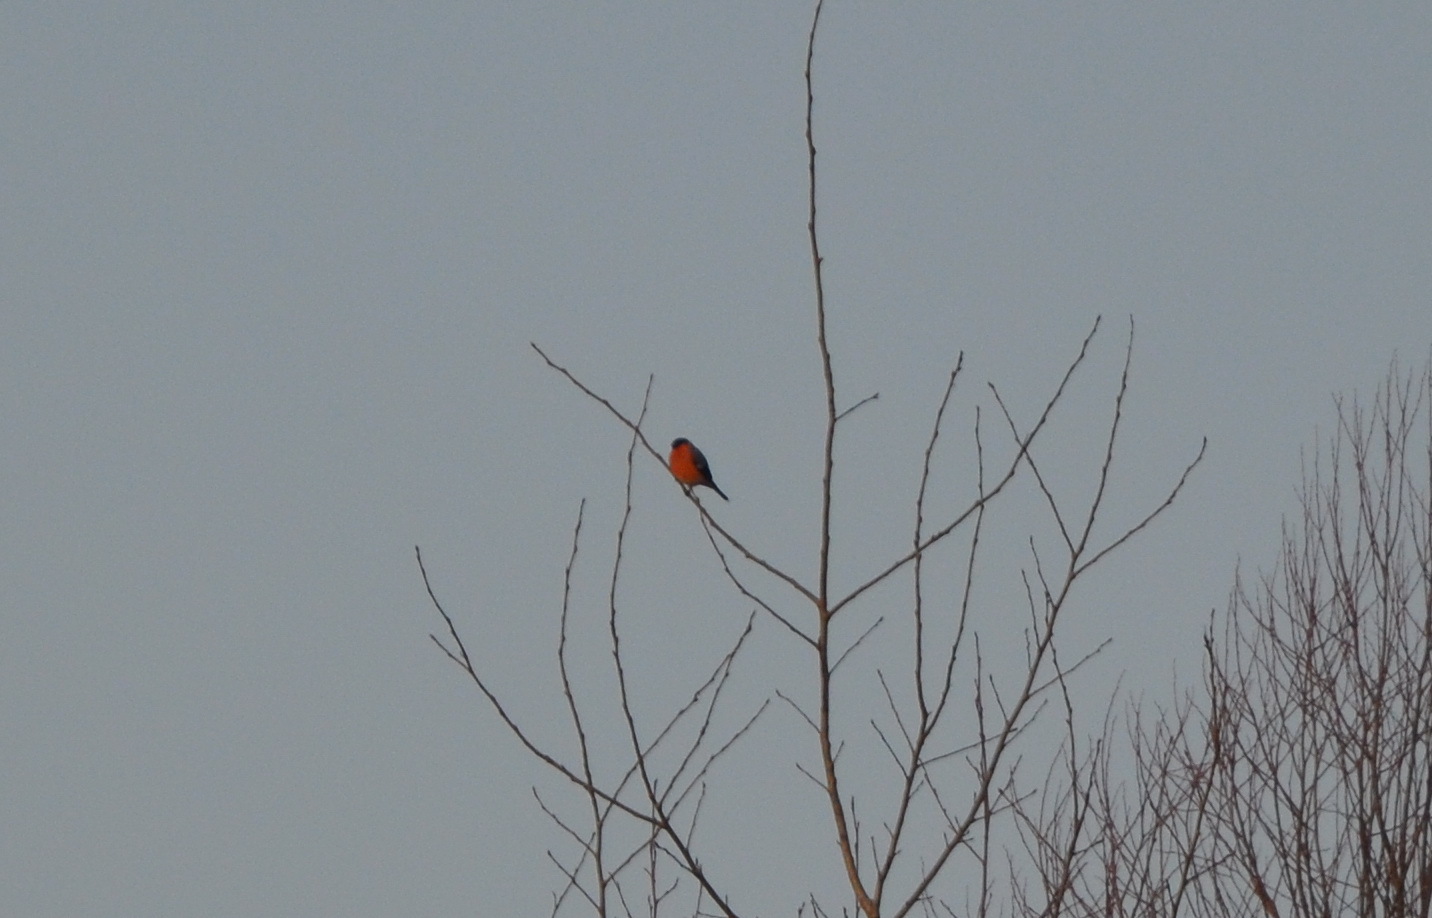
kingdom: Animalia
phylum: Chordata
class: Aves
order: Passeriformes
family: Fringillidae
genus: Pyrrhula
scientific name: Pyrrhula pyrrhula
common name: Eurasian bullfinch
